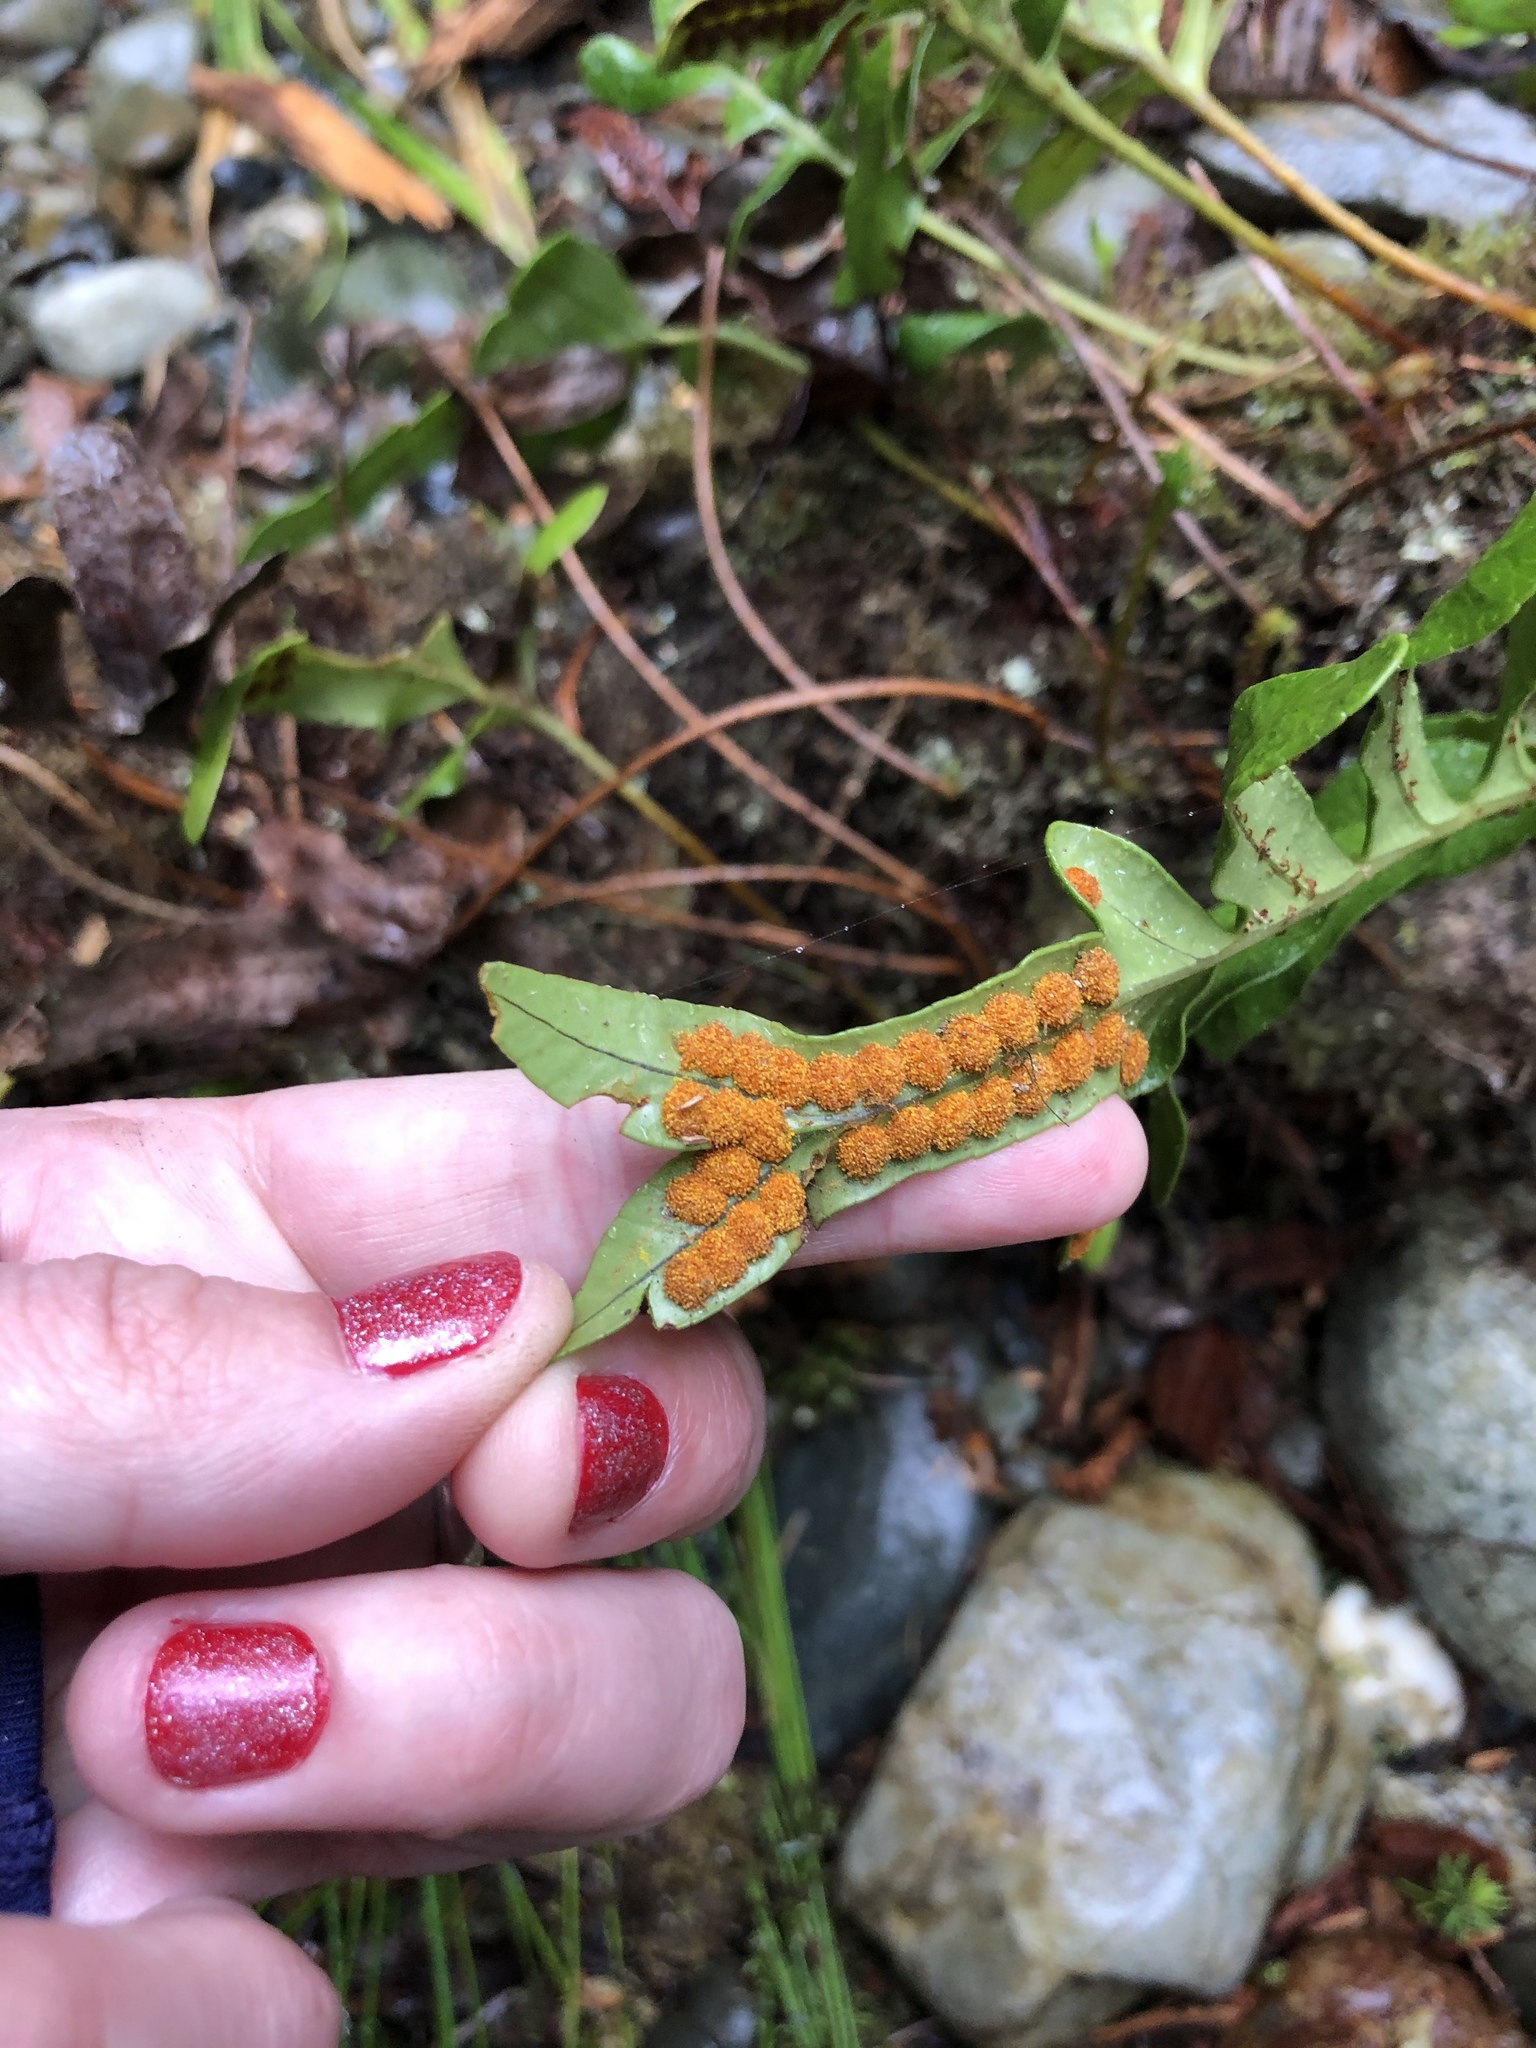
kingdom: Plantae
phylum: Tracheophyta
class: Polypodiopsida
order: Polypodiales
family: Polypodiaceae
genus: Polypodium
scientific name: Polypodium scouleri
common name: Scouler's polypody
